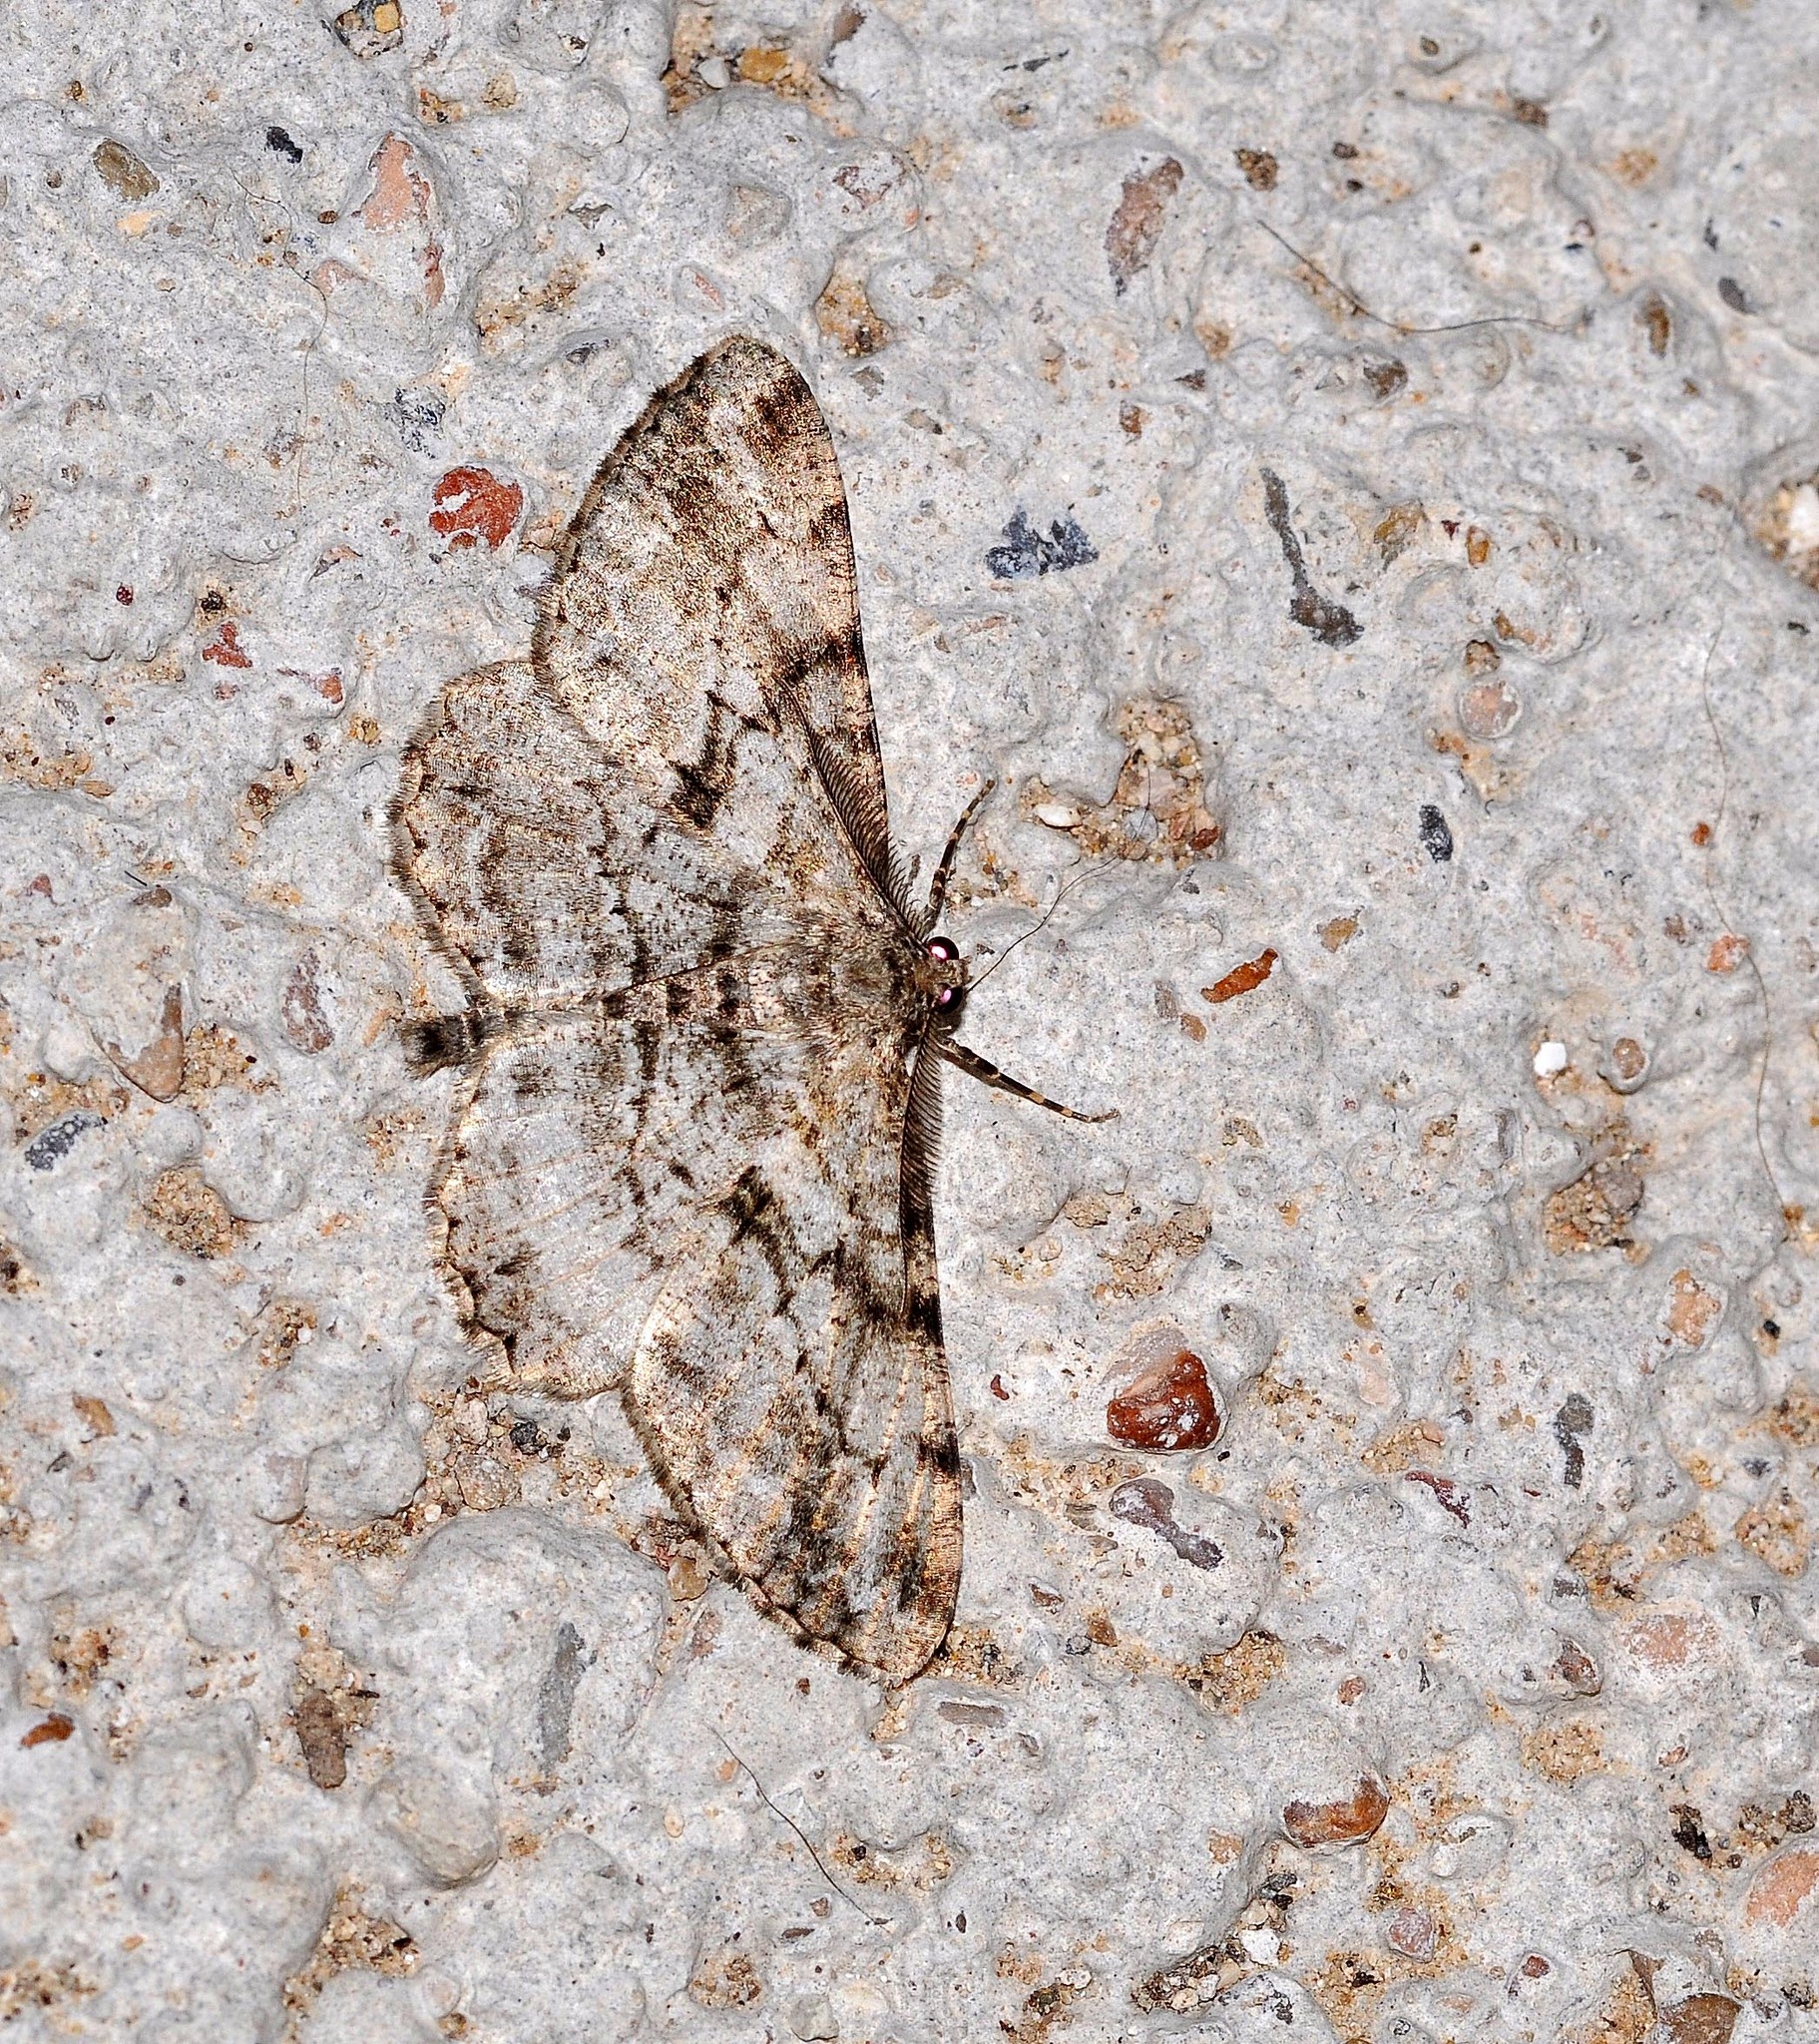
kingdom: Animalia
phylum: Arthropoda
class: Insecta
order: Lepidoptera
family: Geometridae
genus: Peribatodes
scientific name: Peribatodes rhomboidaria
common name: Willow beauty
